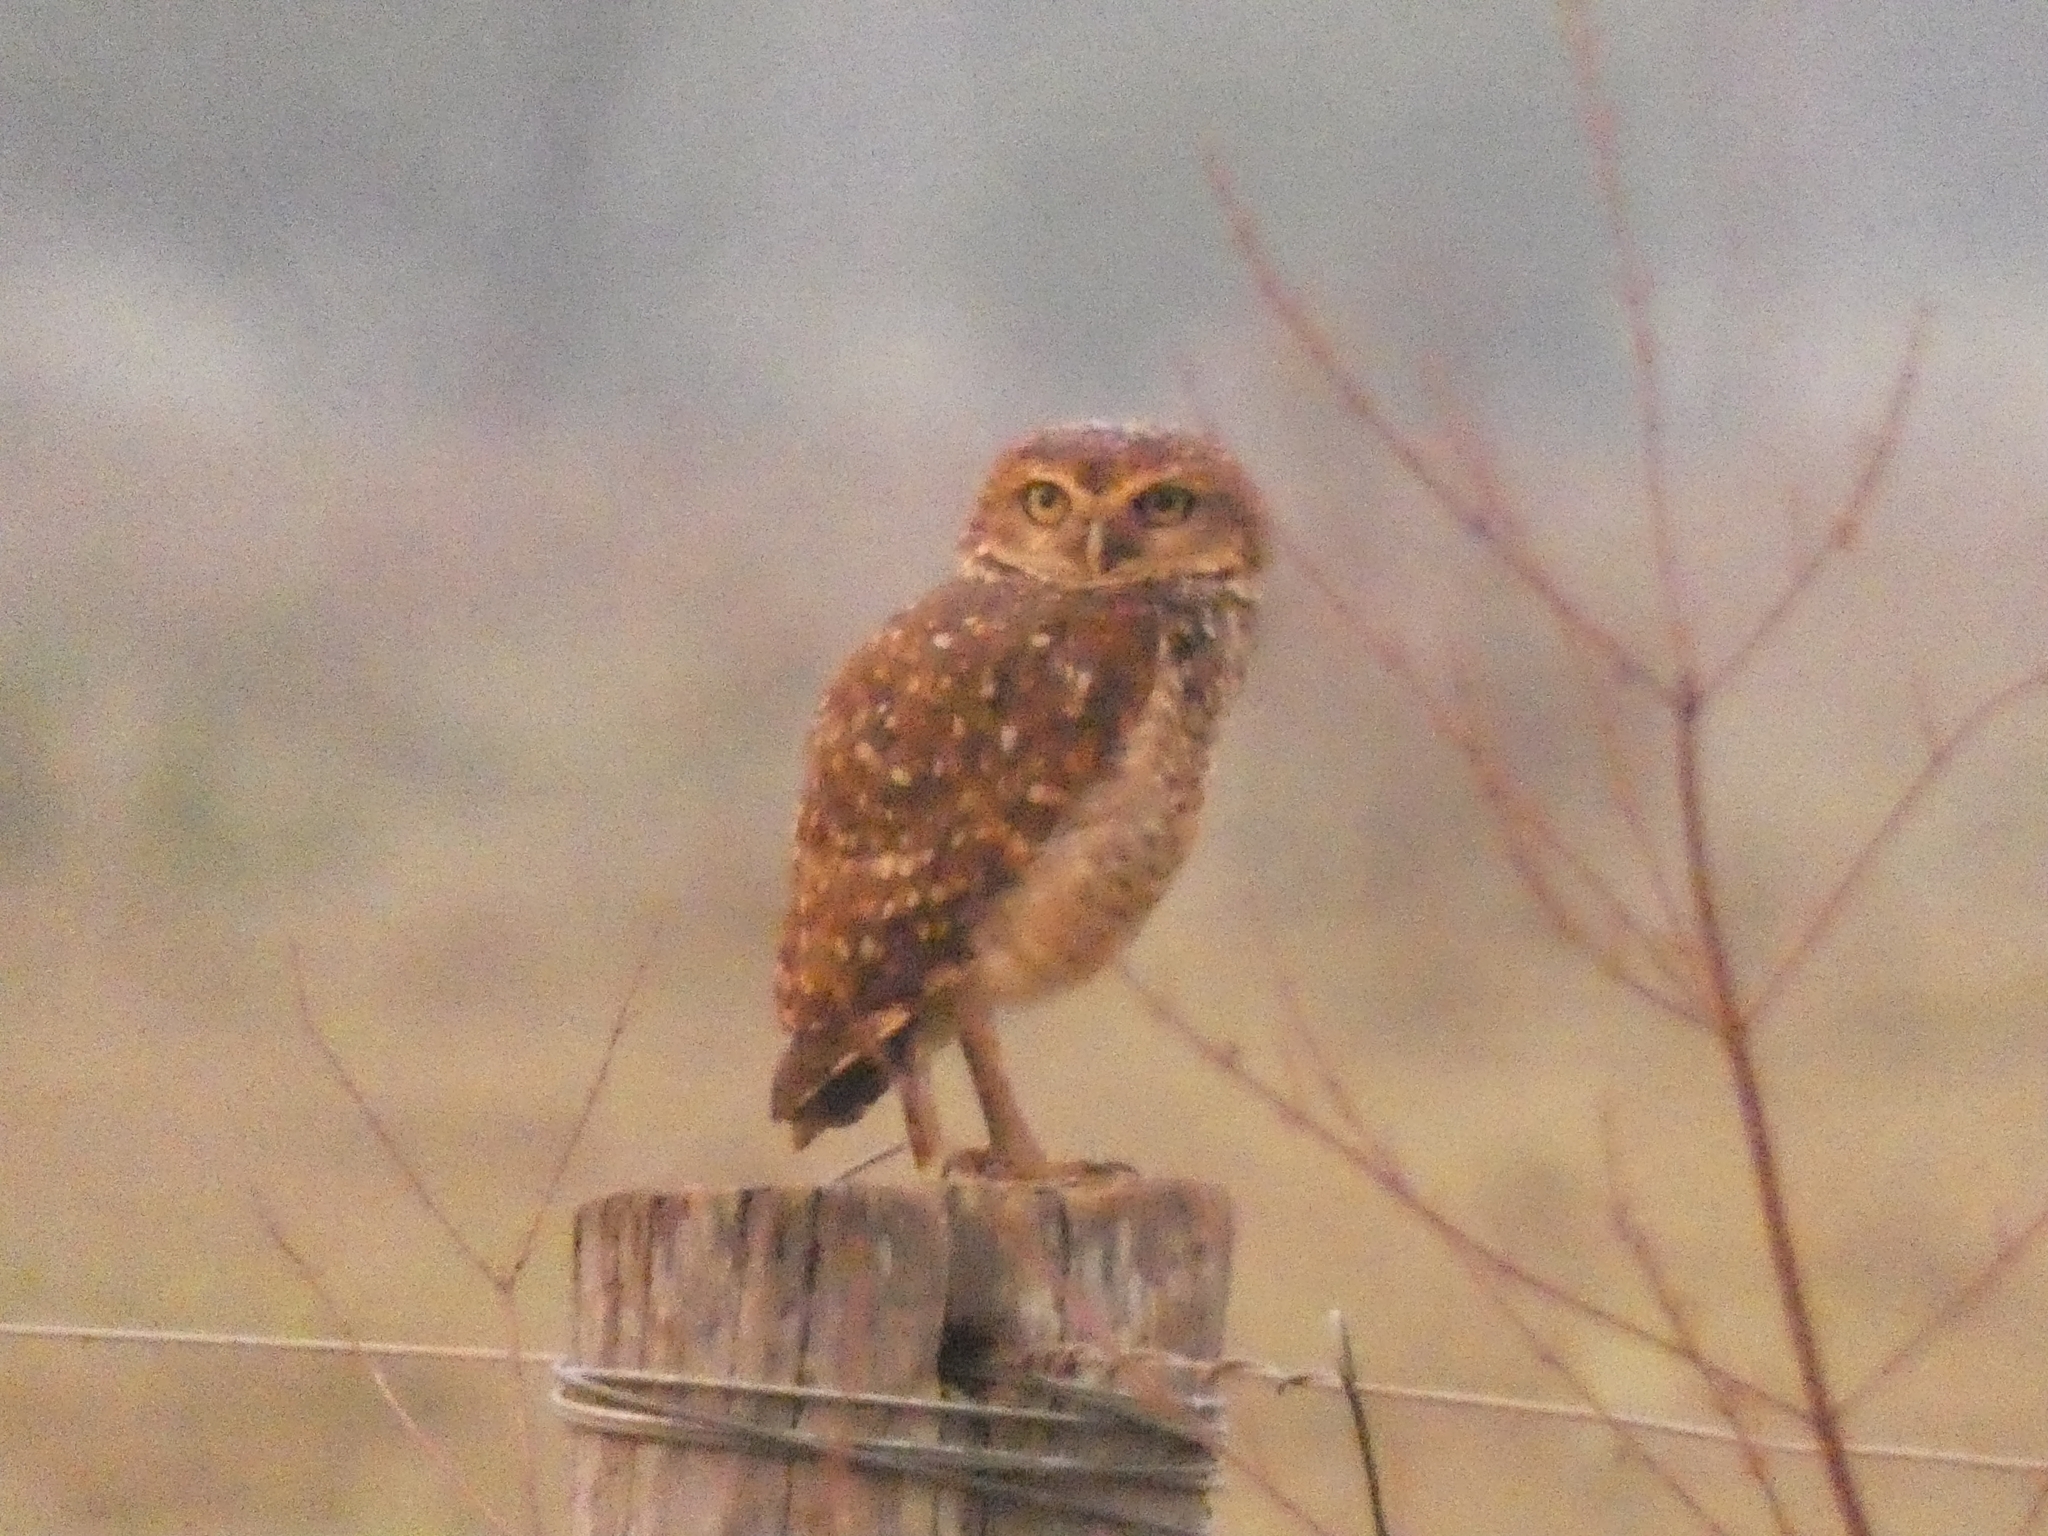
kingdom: Animalia
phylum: Chordata
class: Aves
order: Strigiformes
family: Strigidae
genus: Athene
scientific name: Athene cunicularia
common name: Burrowing owl
